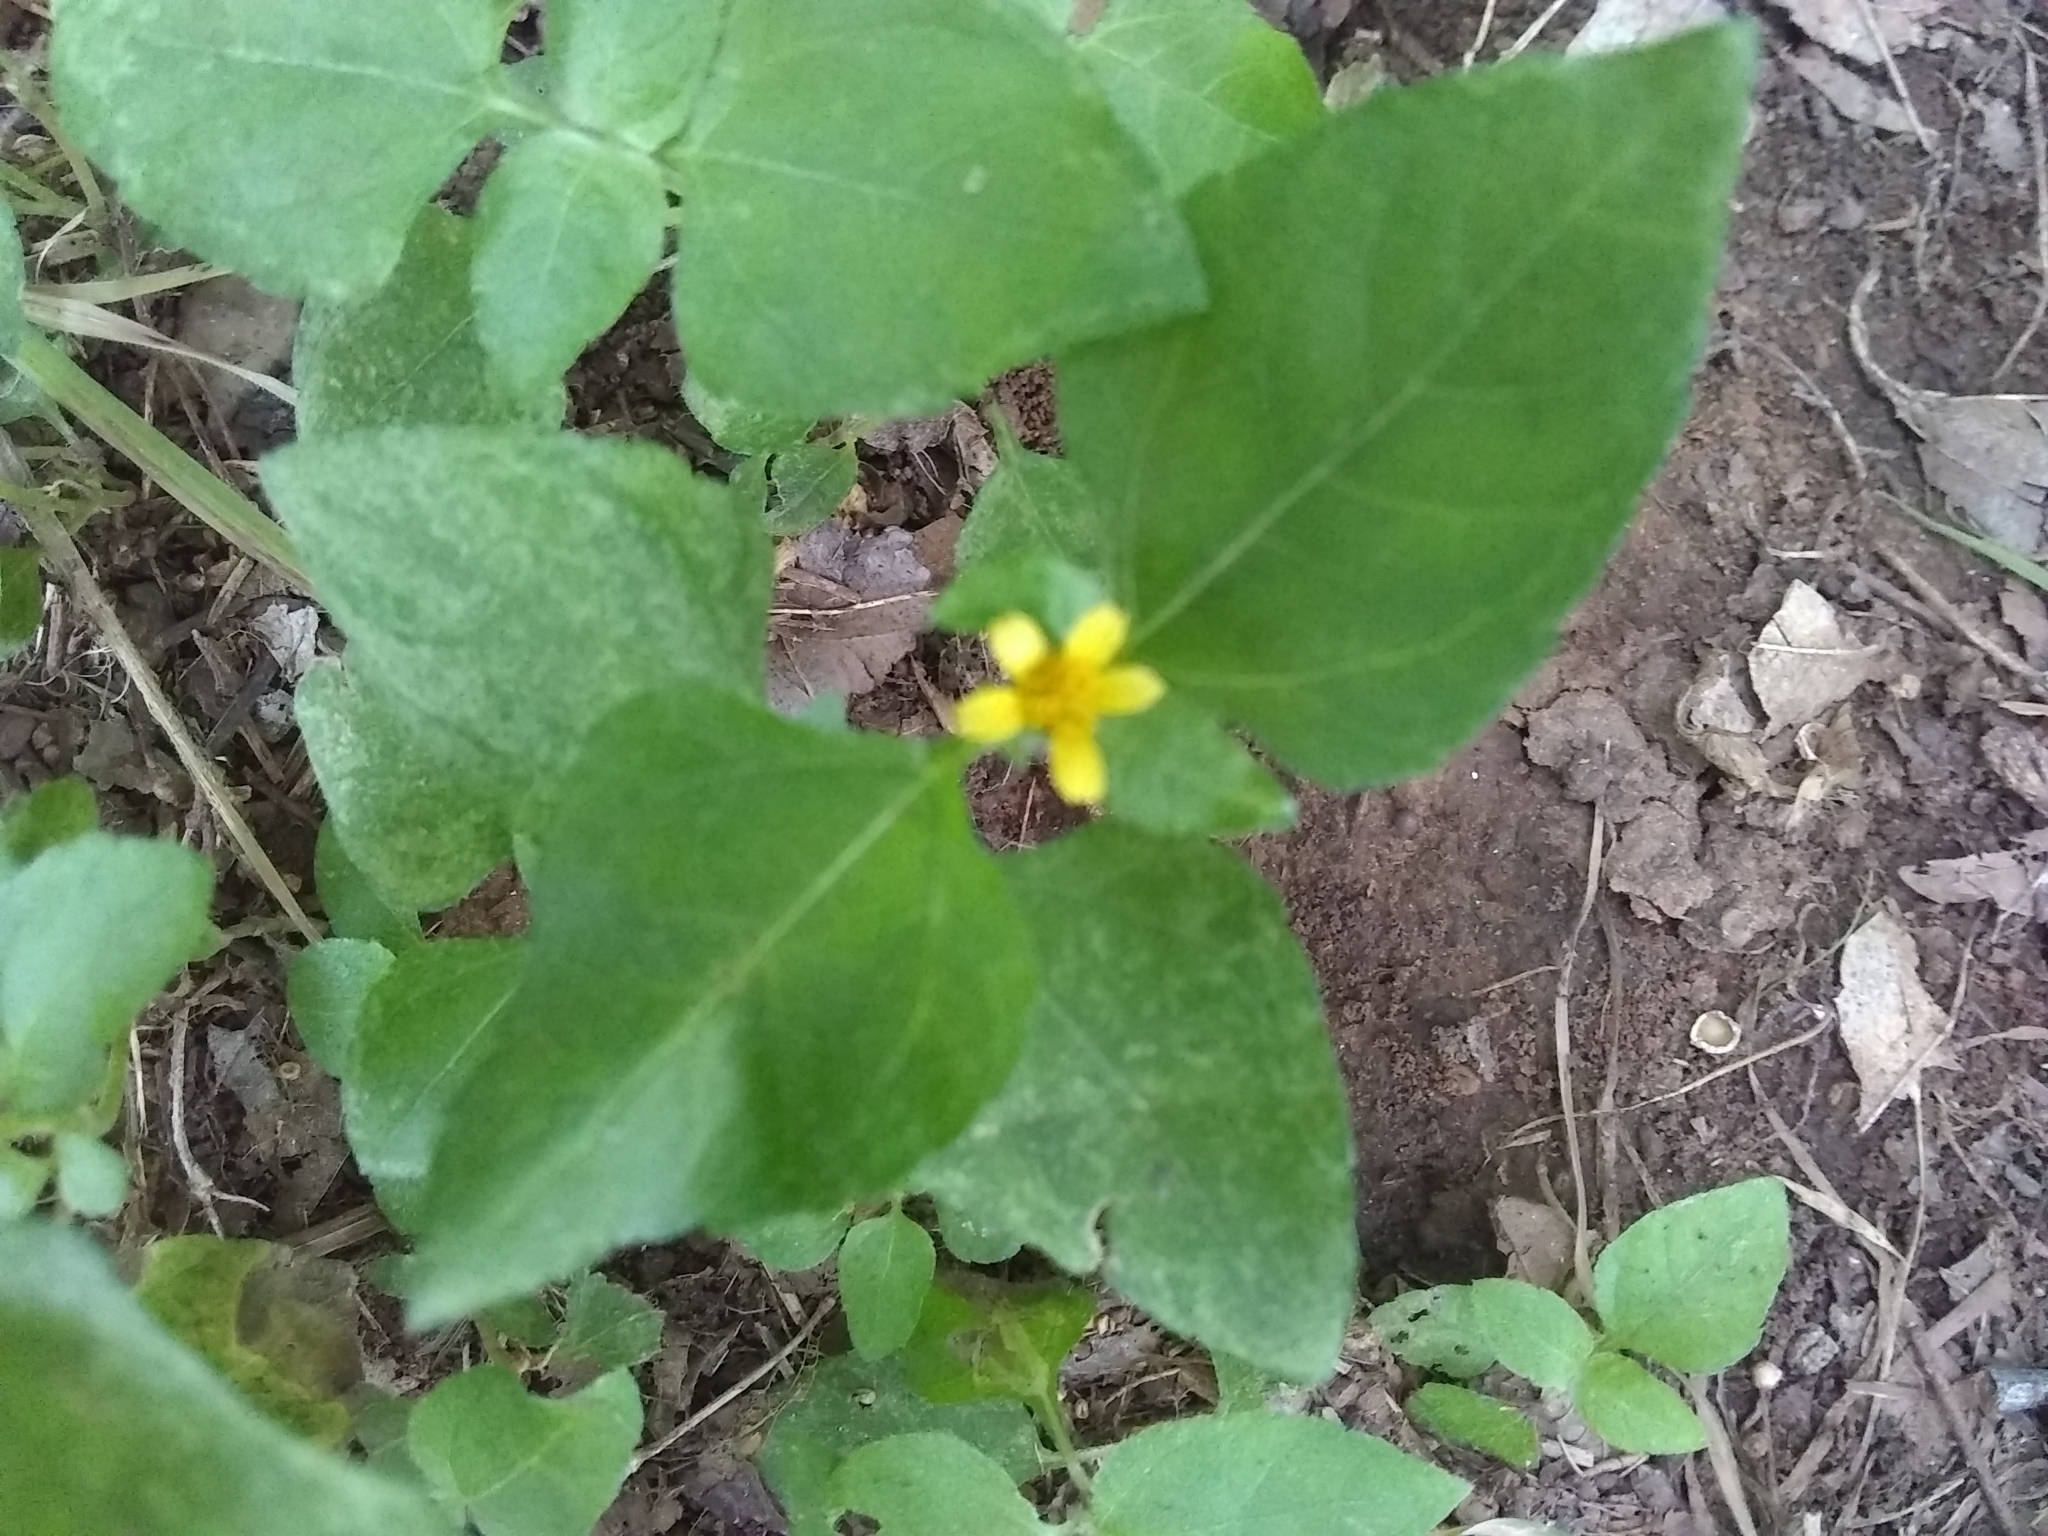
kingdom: Plantae
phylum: Tracheophyta
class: Magnoliopsida
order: Asterales
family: Asteraceae
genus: Calyptocarpus
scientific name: Calyptocarpus vialis
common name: Straggler daisy
